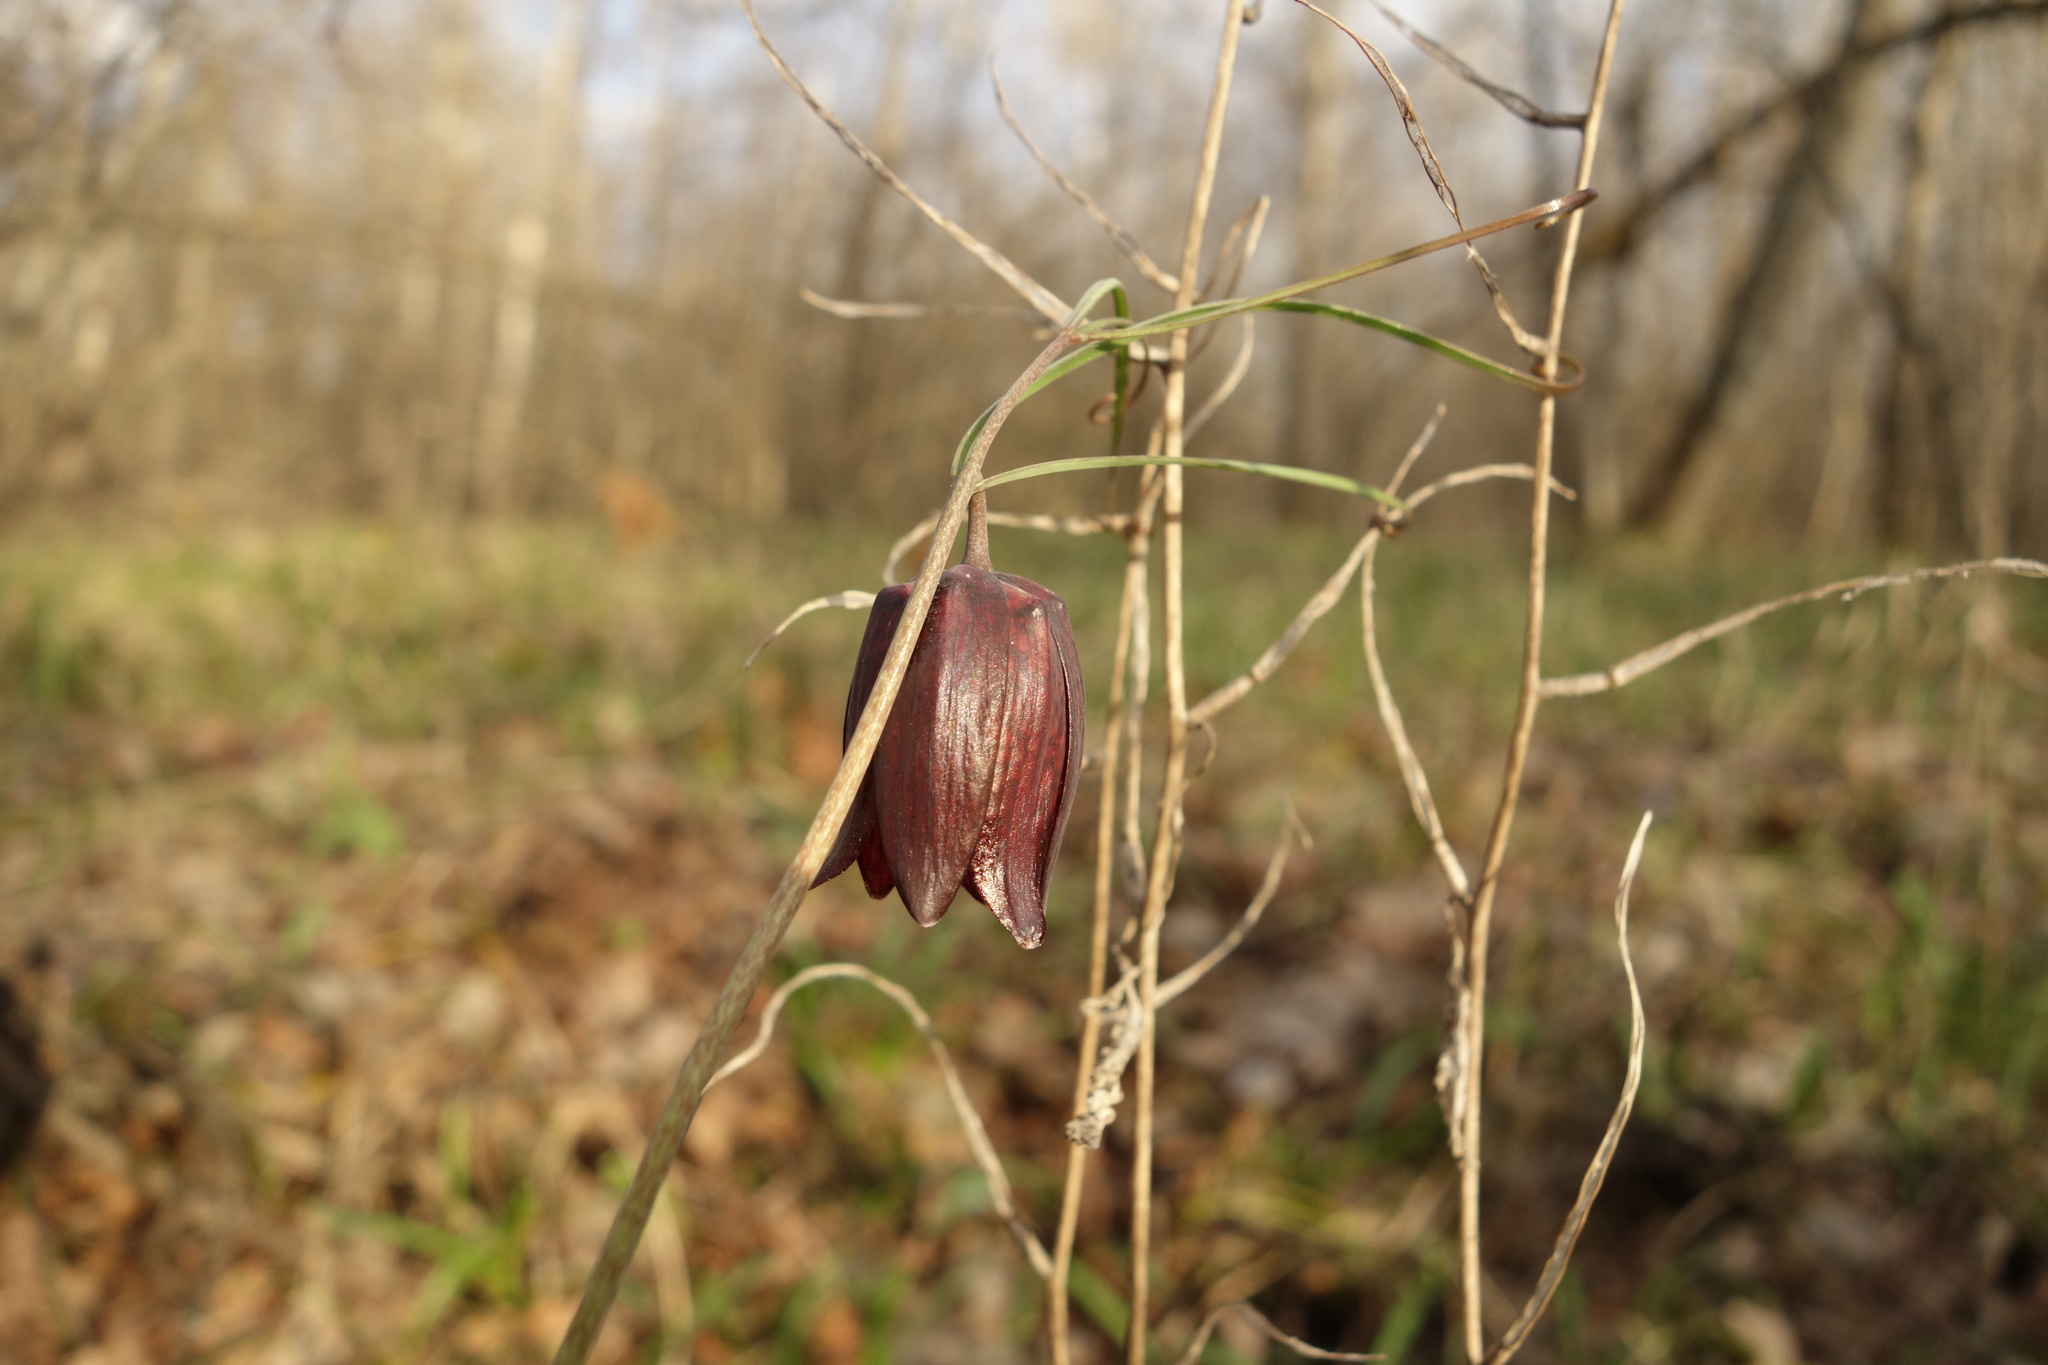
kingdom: Plantae
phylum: Tracheophyta
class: Liliopsida
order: Liliales
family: Liliaceae
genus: Fritillaria
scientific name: Fritillaria ruthenica
